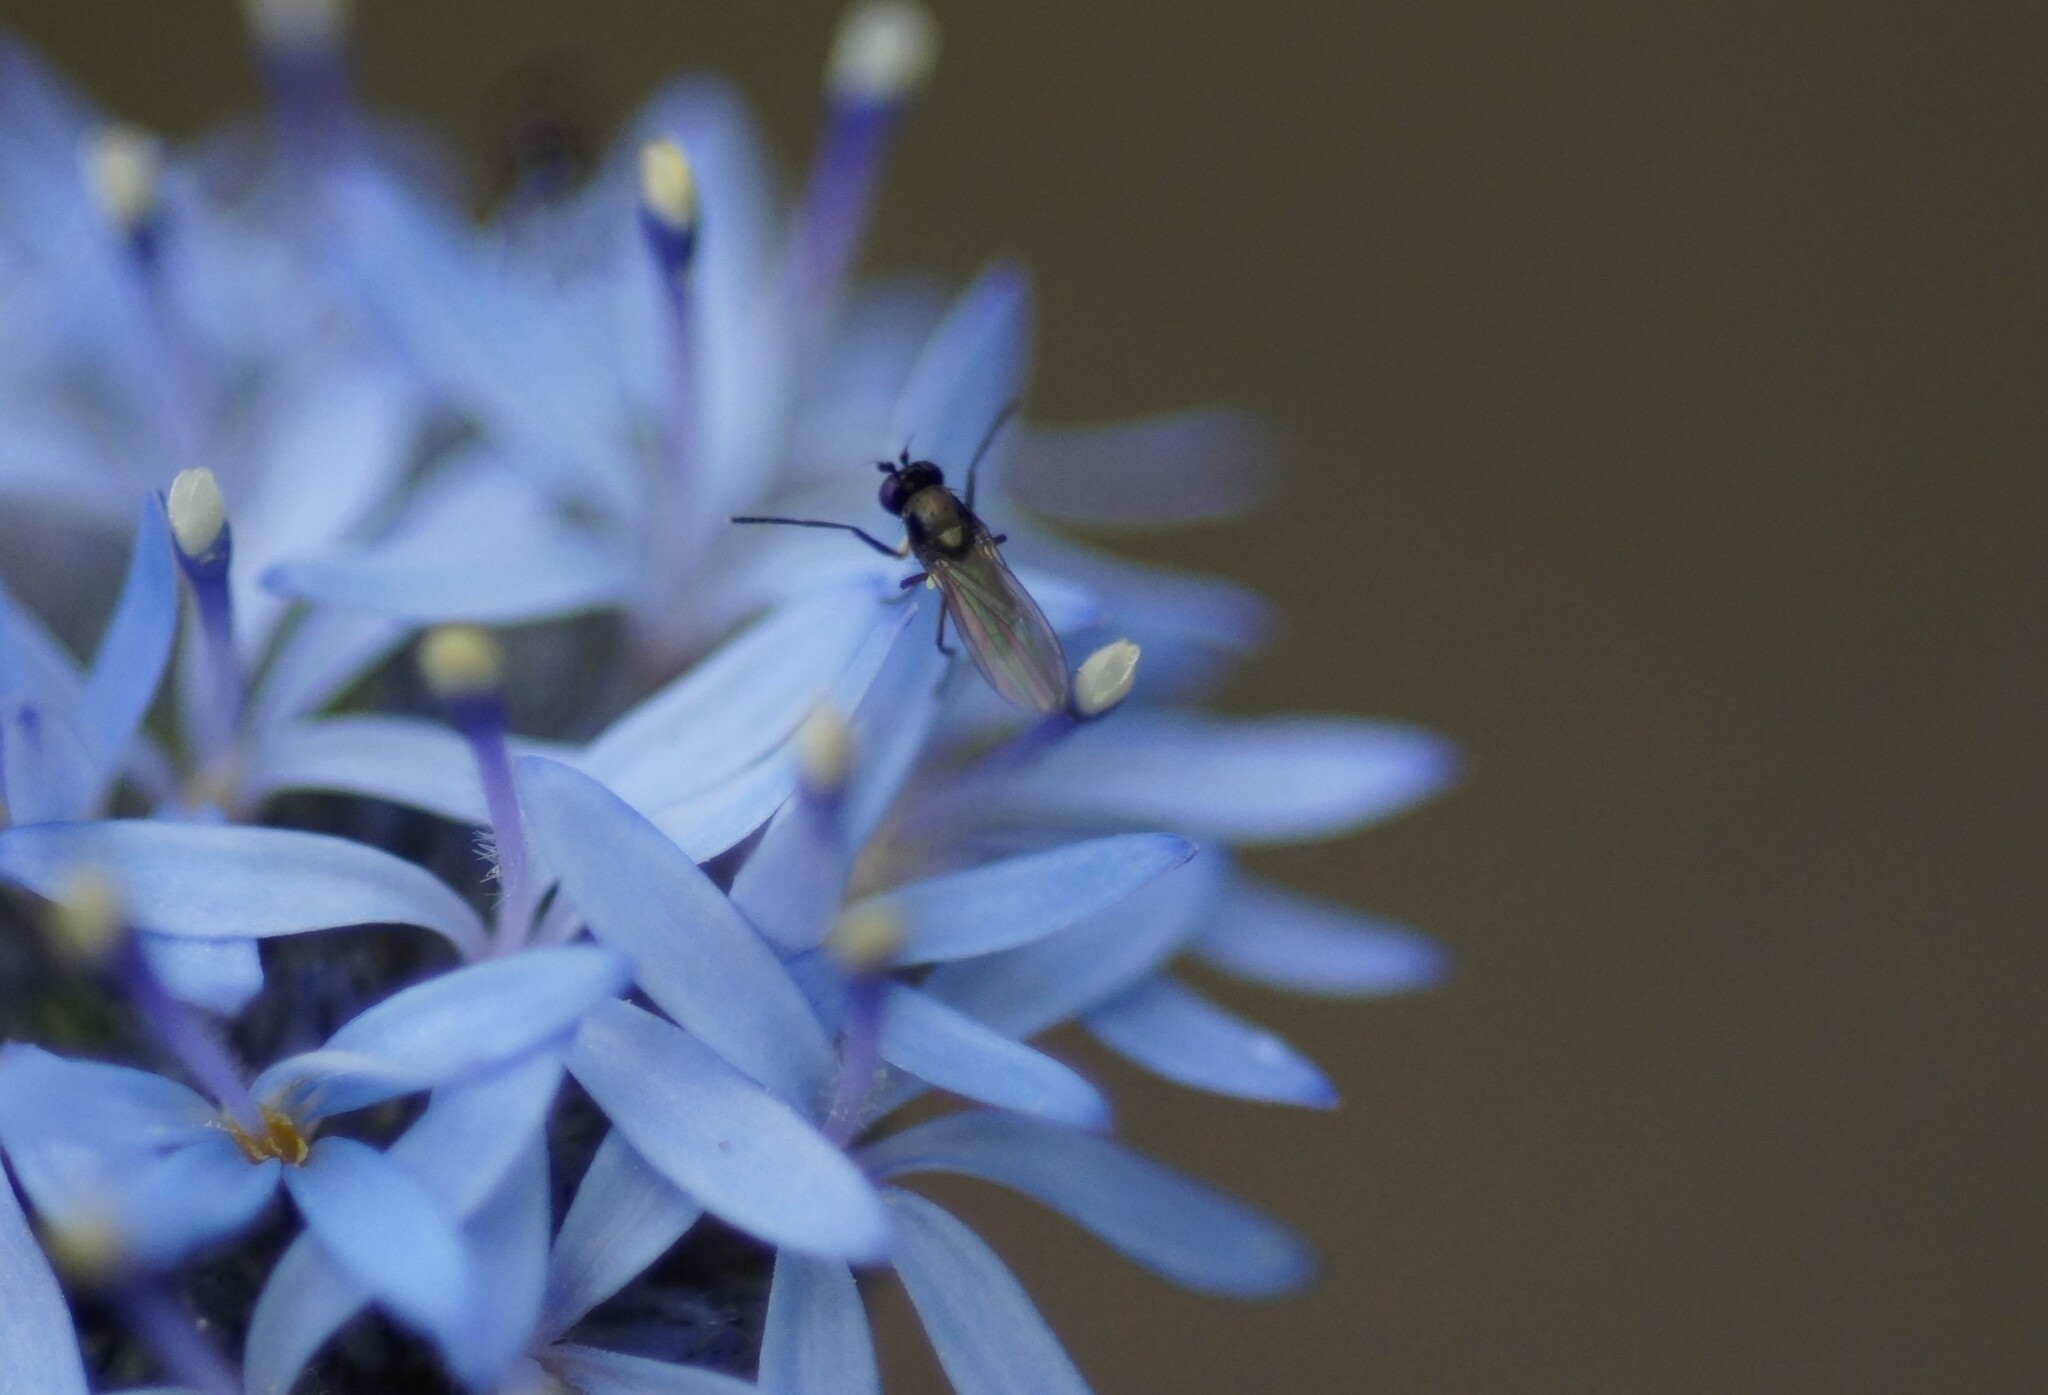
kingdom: Animalia
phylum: Arthropoda
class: Insecta
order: Diptera
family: Ephydridae
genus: Hydrellia
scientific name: Hydrellia tritici
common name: Shore fly
